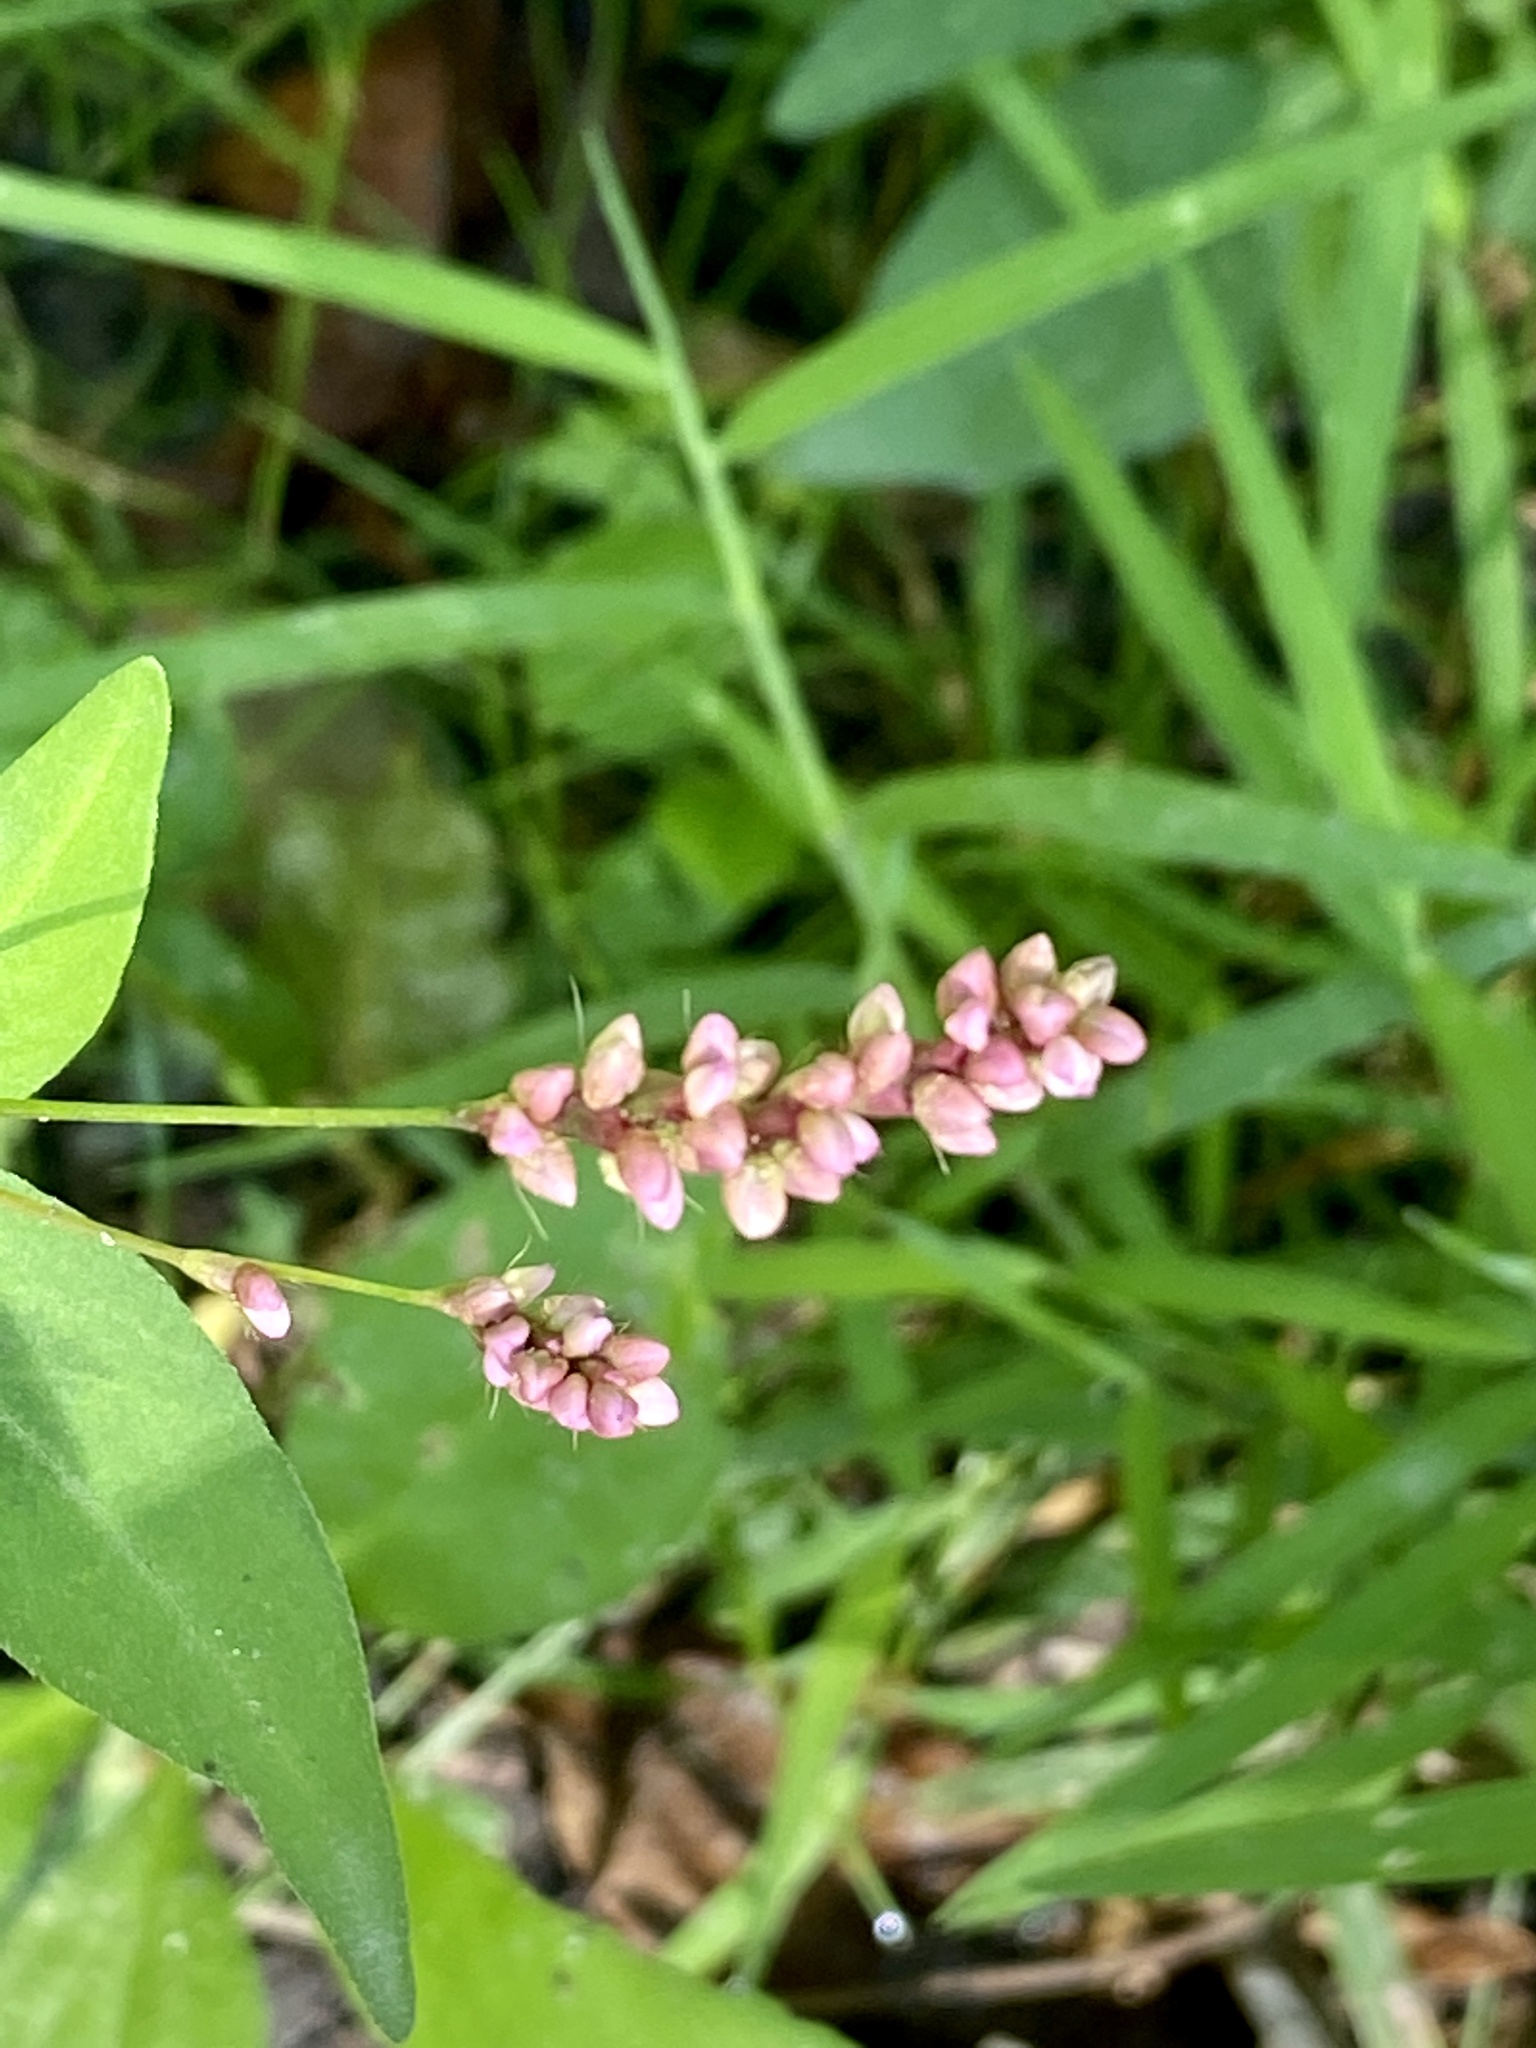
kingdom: Plantae
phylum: Tracheophyta
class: Magnoliopsida
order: Caryophyllales
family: Polygonaceae
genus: Persicaria
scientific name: Persicaria longiseta
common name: Bristly lady's-thumb
